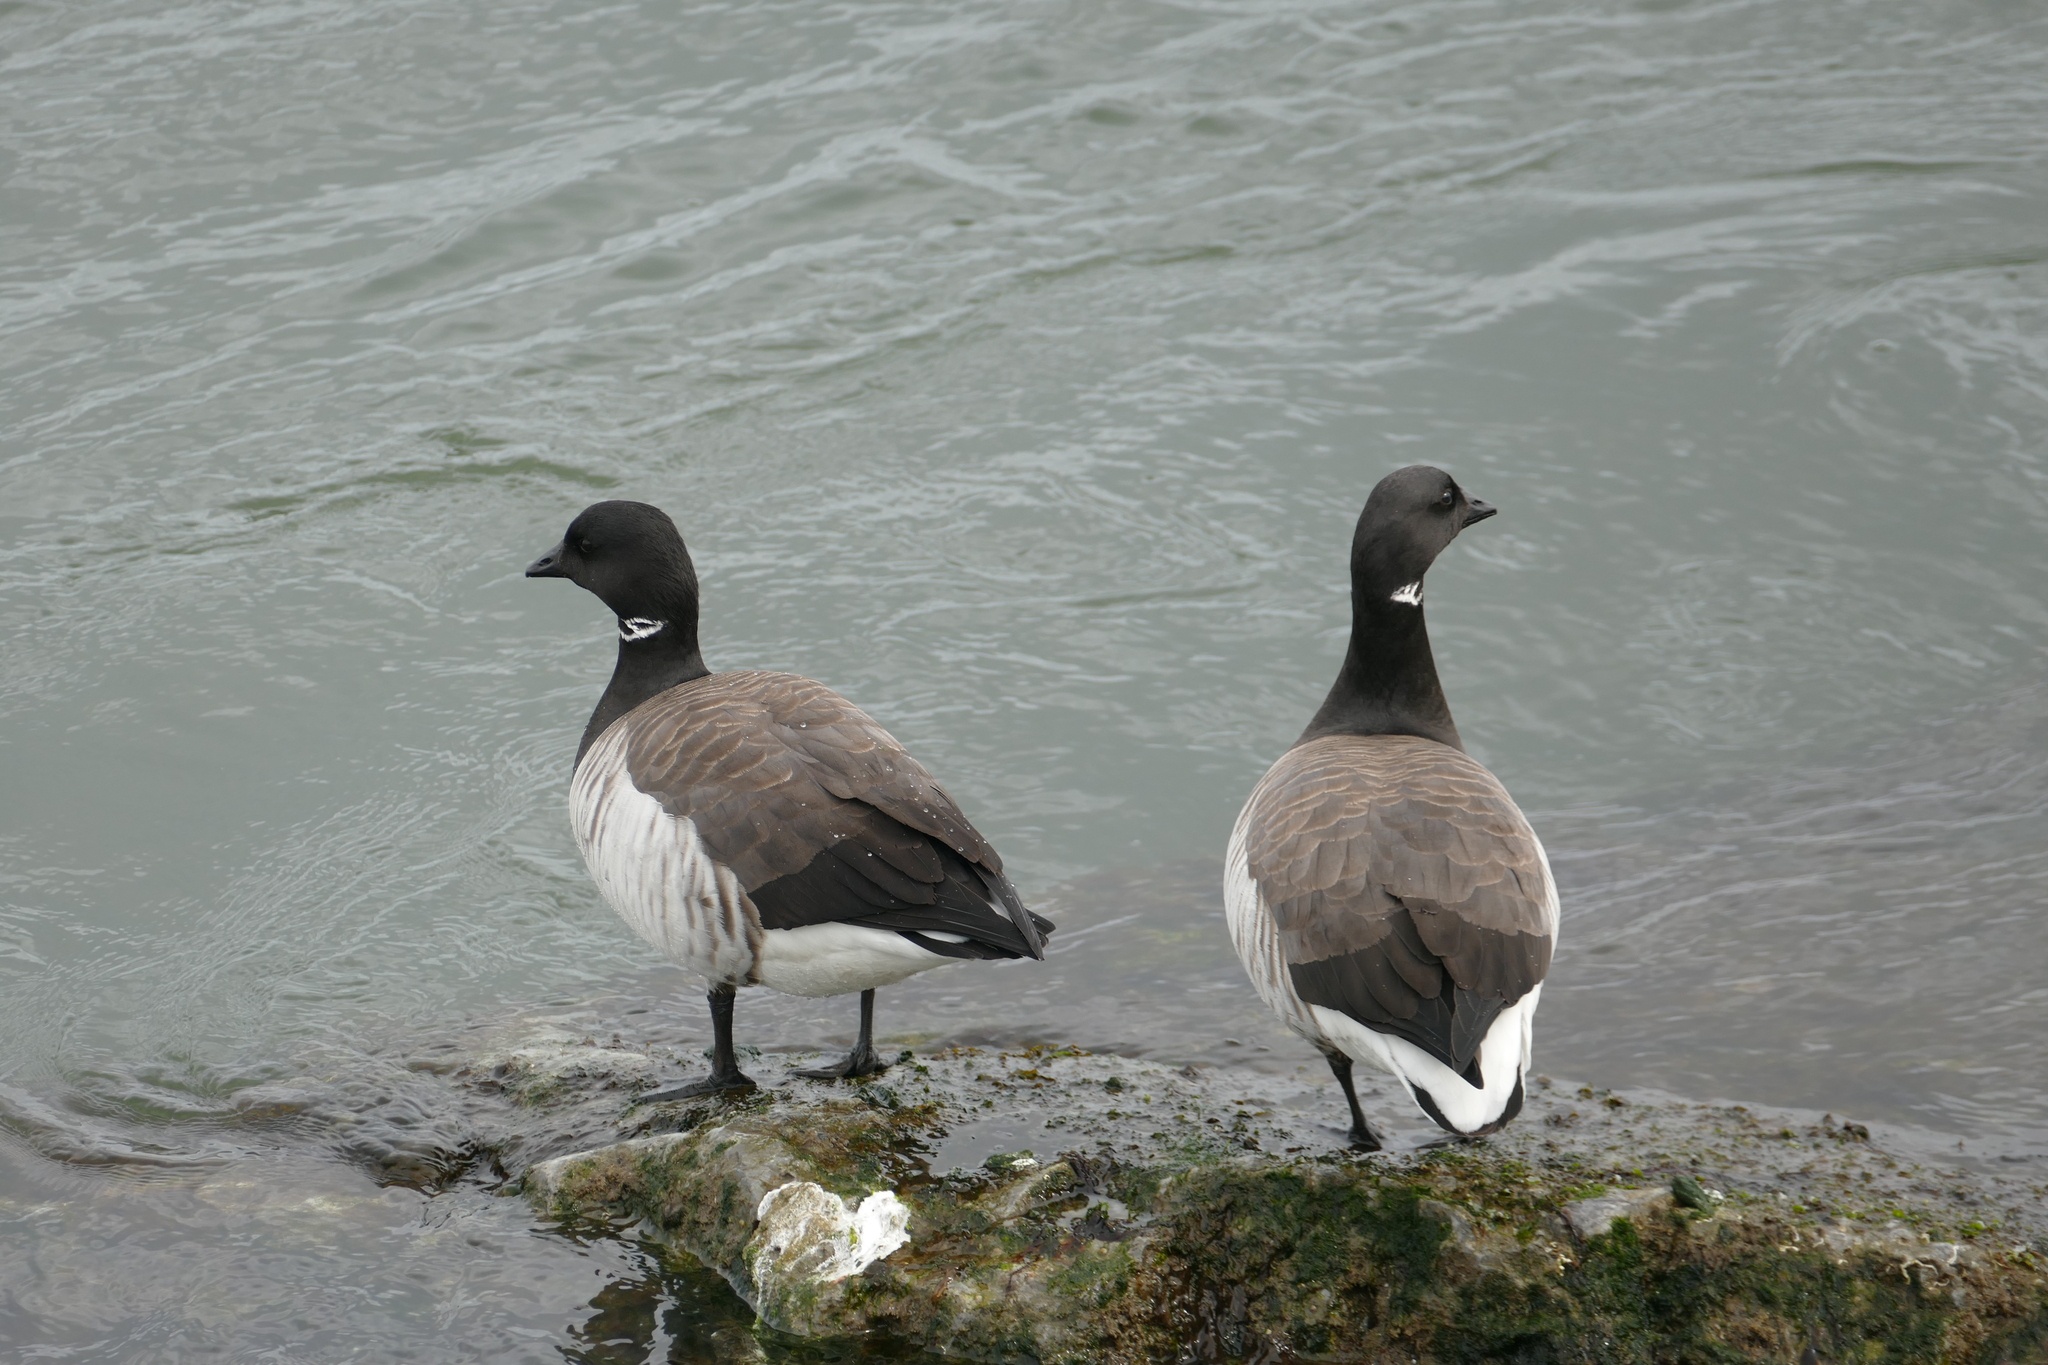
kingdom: Animalia
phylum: Chordata
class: Aves
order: Anseriformes
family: Anatidae
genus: Branta
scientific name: Branta bernicla
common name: Brant goose
